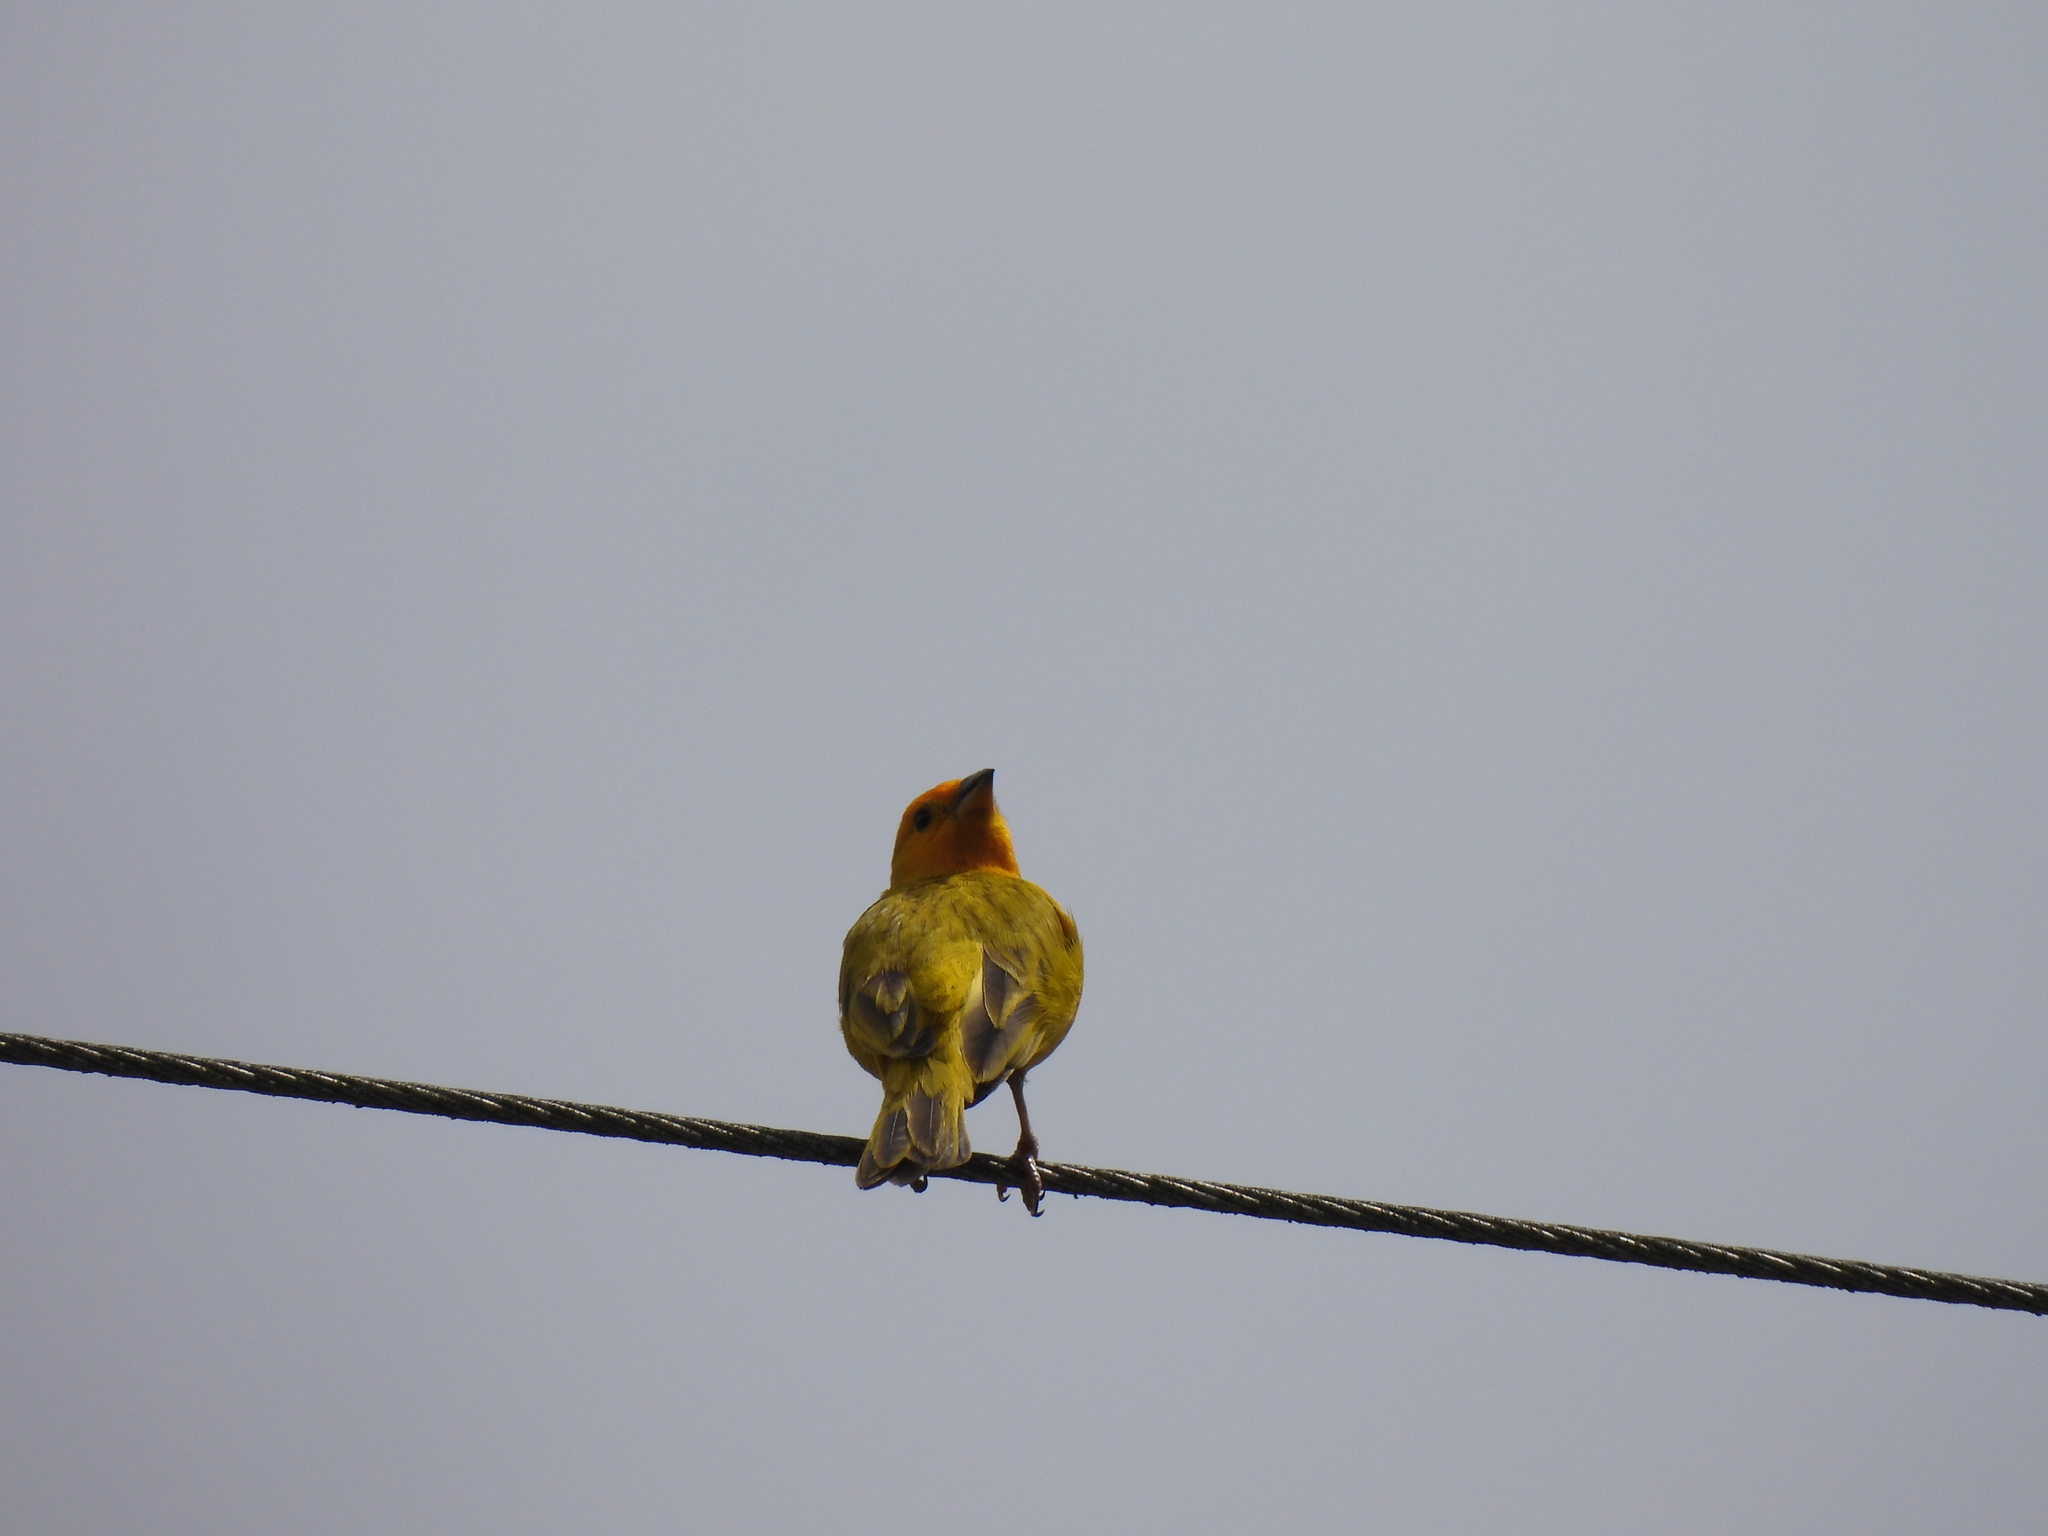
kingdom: Animalia
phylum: Chordata
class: Aves
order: Passeriformes
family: Thraupidae
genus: Sicalis
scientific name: Sicalis flaveola
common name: Saffron finch
